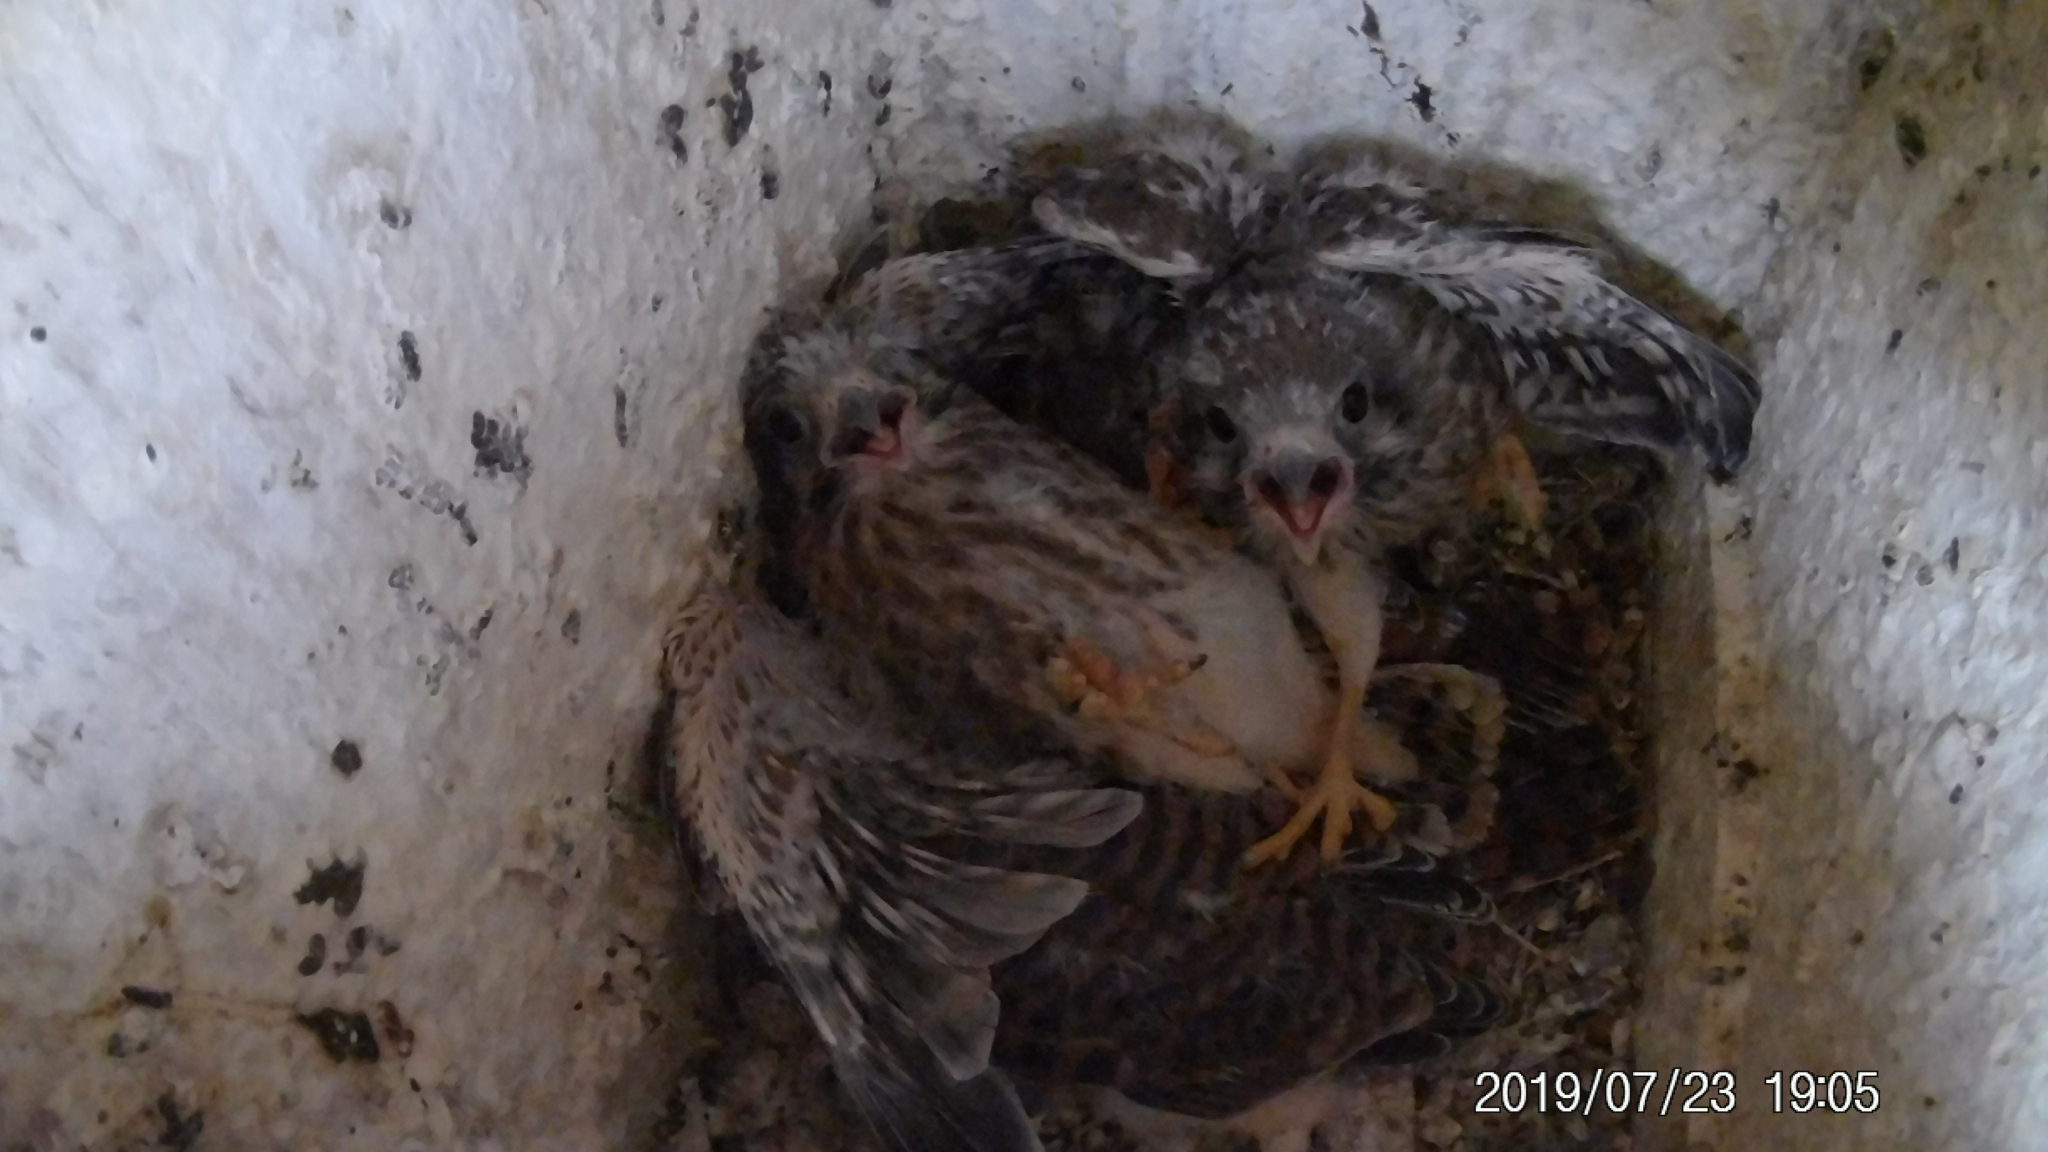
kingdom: Animalia
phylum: Chordata
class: Aves
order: Falconiformes
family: Falconidae
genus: Falco
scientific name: Falco sparverius
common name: American kestrel
